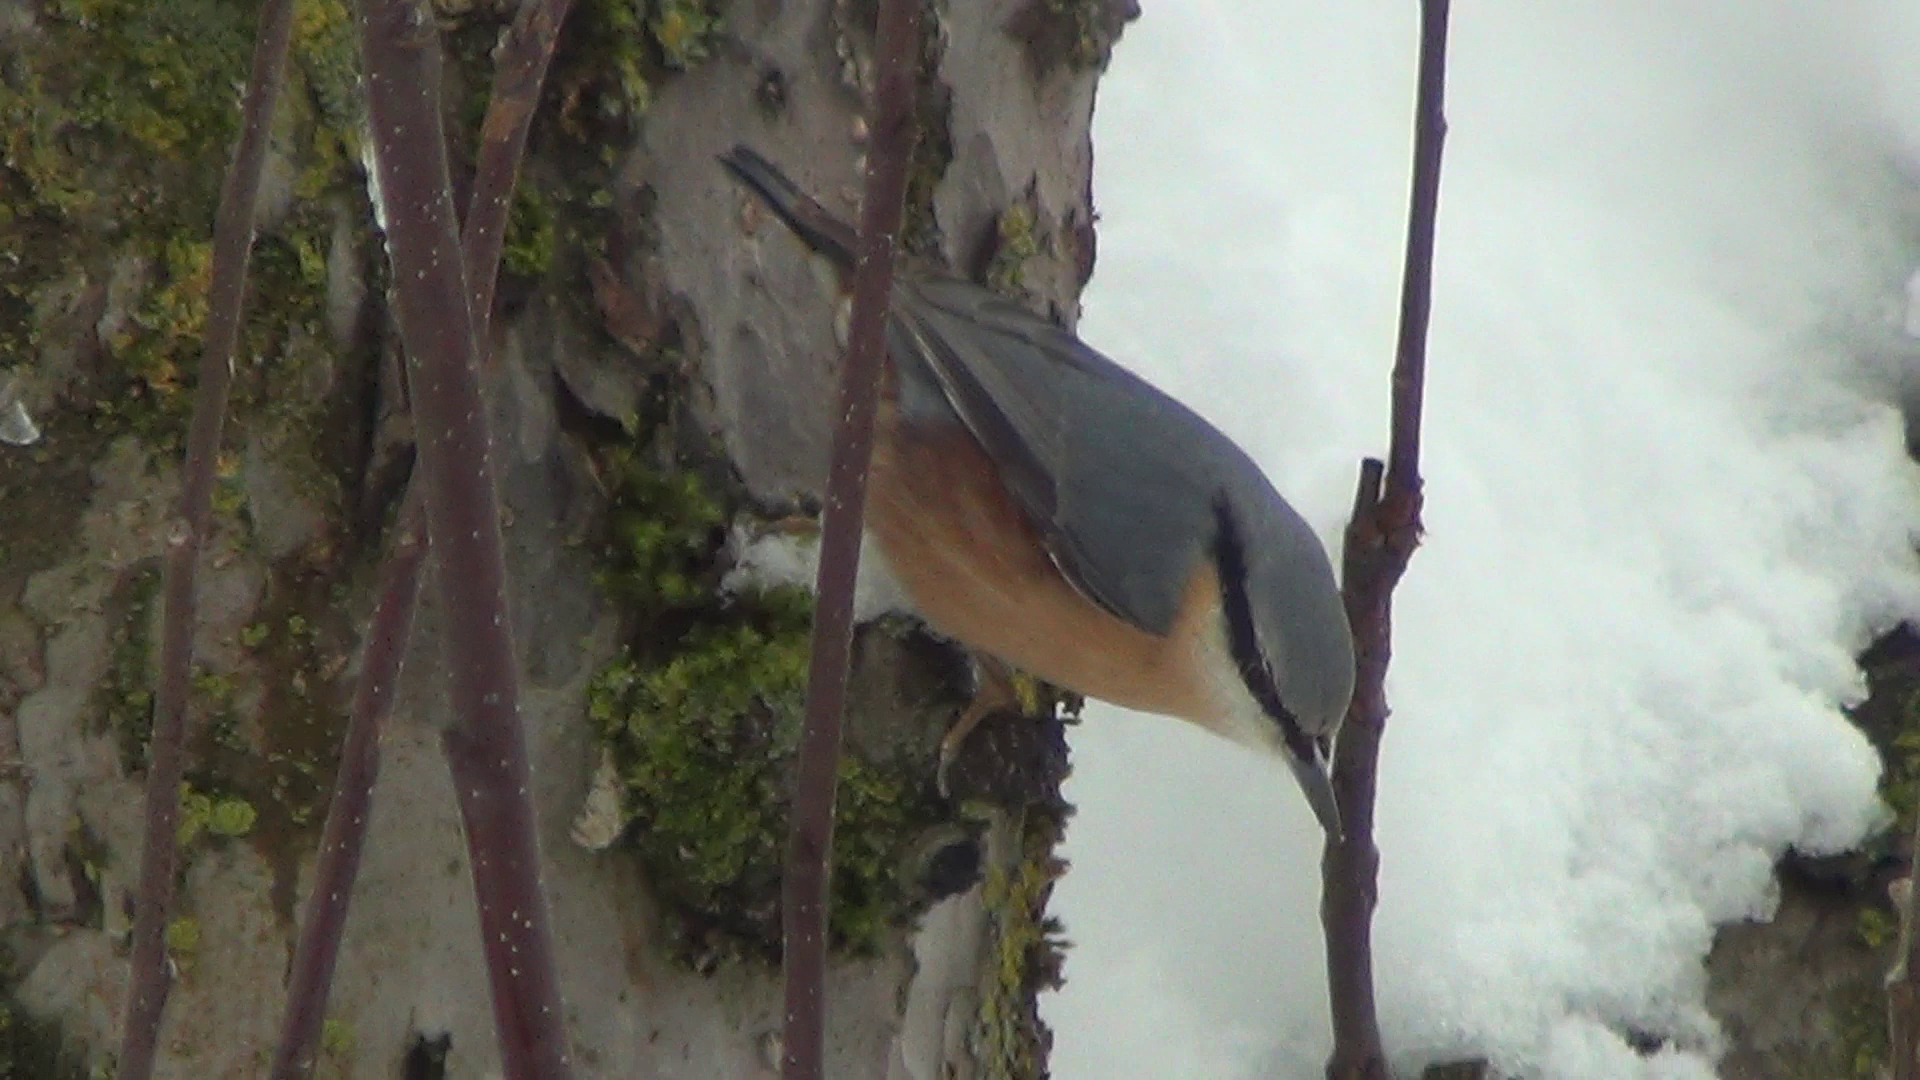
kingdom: Animalia
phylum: Chordata
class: Aves
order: Passeriformes
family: Sittidae
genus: Sitta
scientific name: Sitta europaea
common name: Eurasian nuthatch
